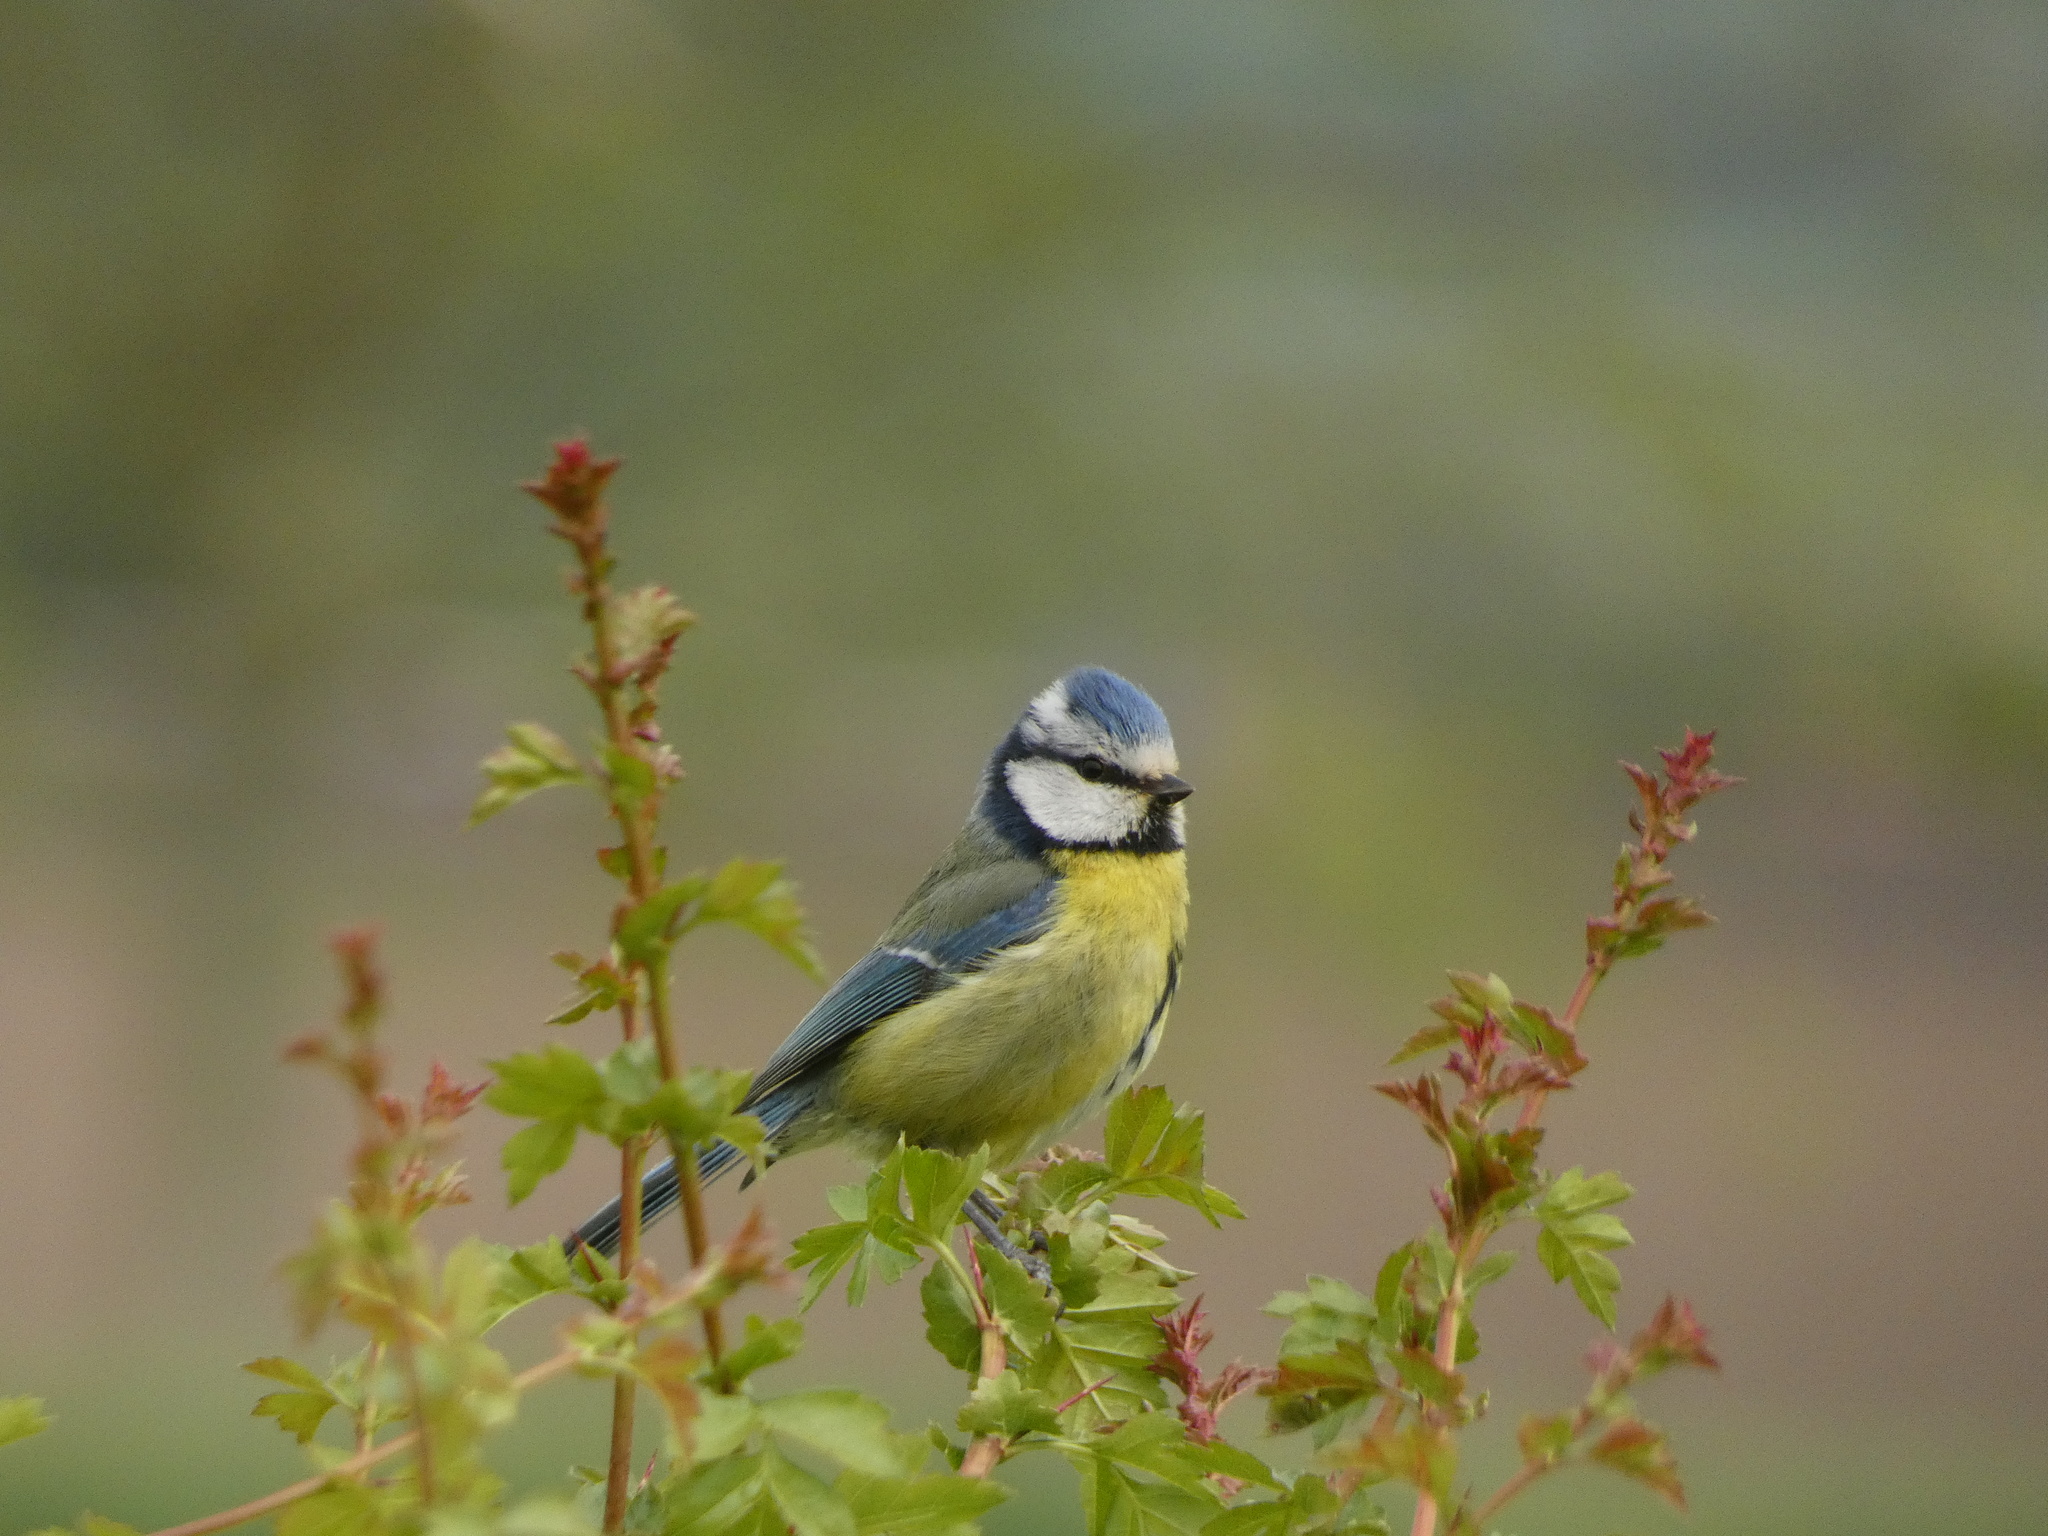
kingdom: Animalia
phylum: Chordata
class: Aves
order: Passeriformes
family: Paridae
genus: Cyanistes
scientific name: Cyanistes caeruleus
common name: Eurasian blue tit
